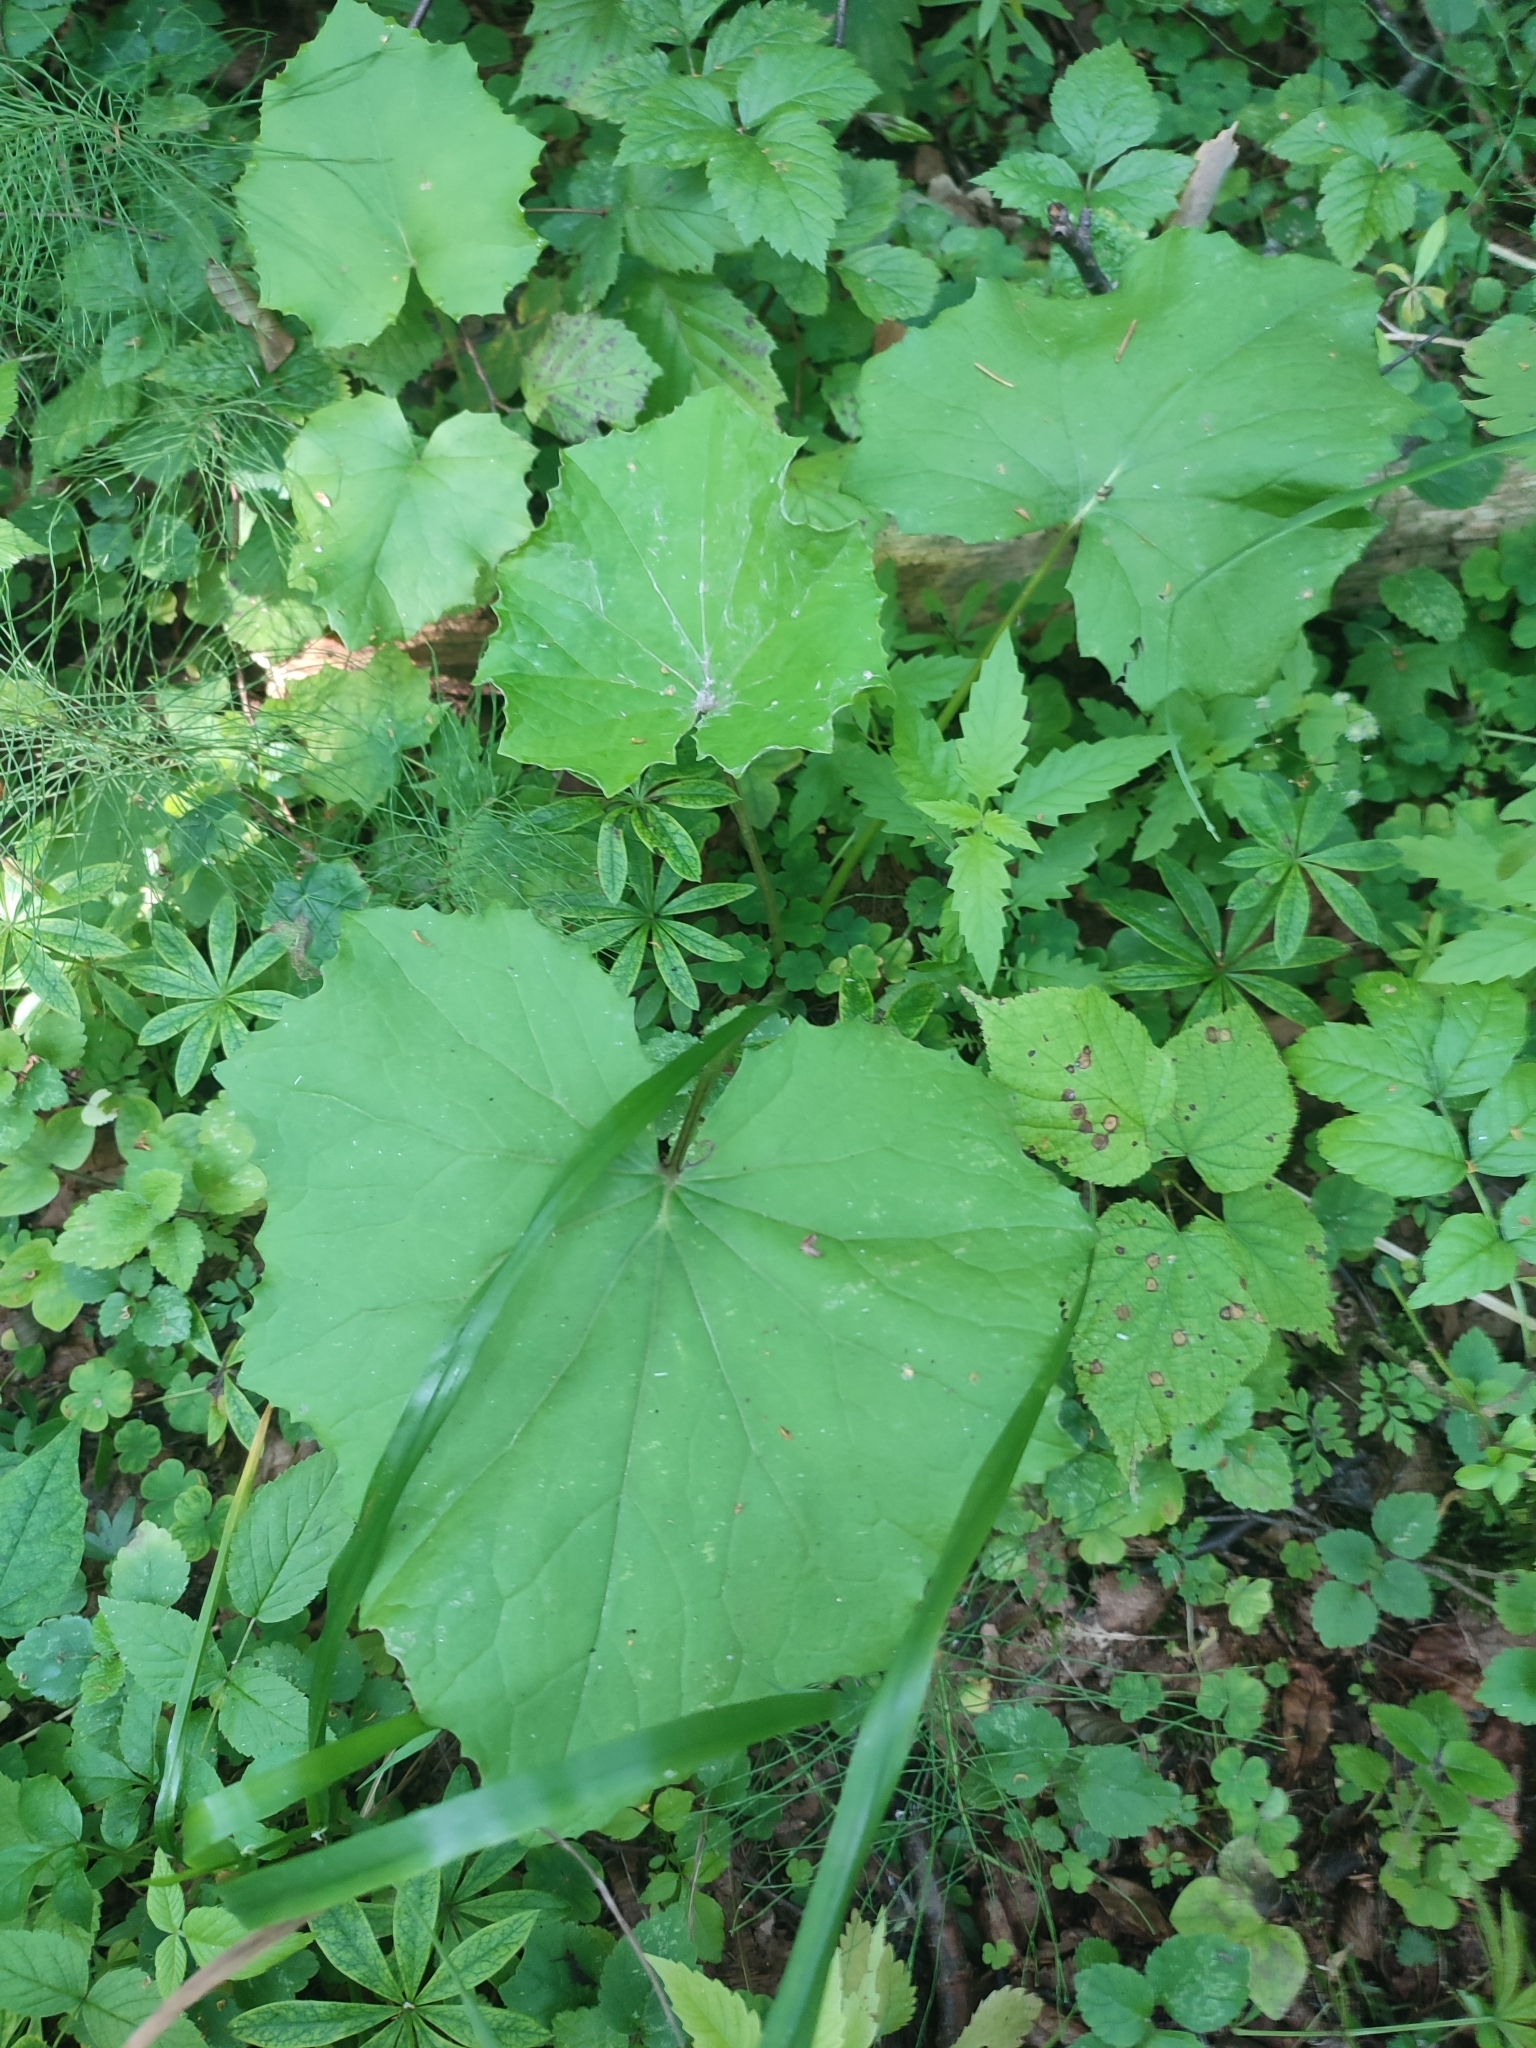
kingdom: Plantae
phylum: Tracheophyta
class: Magnoliopsida
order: Asterales
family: Asteraceae
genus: Tussilago
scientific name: Tussilago farfara
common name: Coltsfoot
